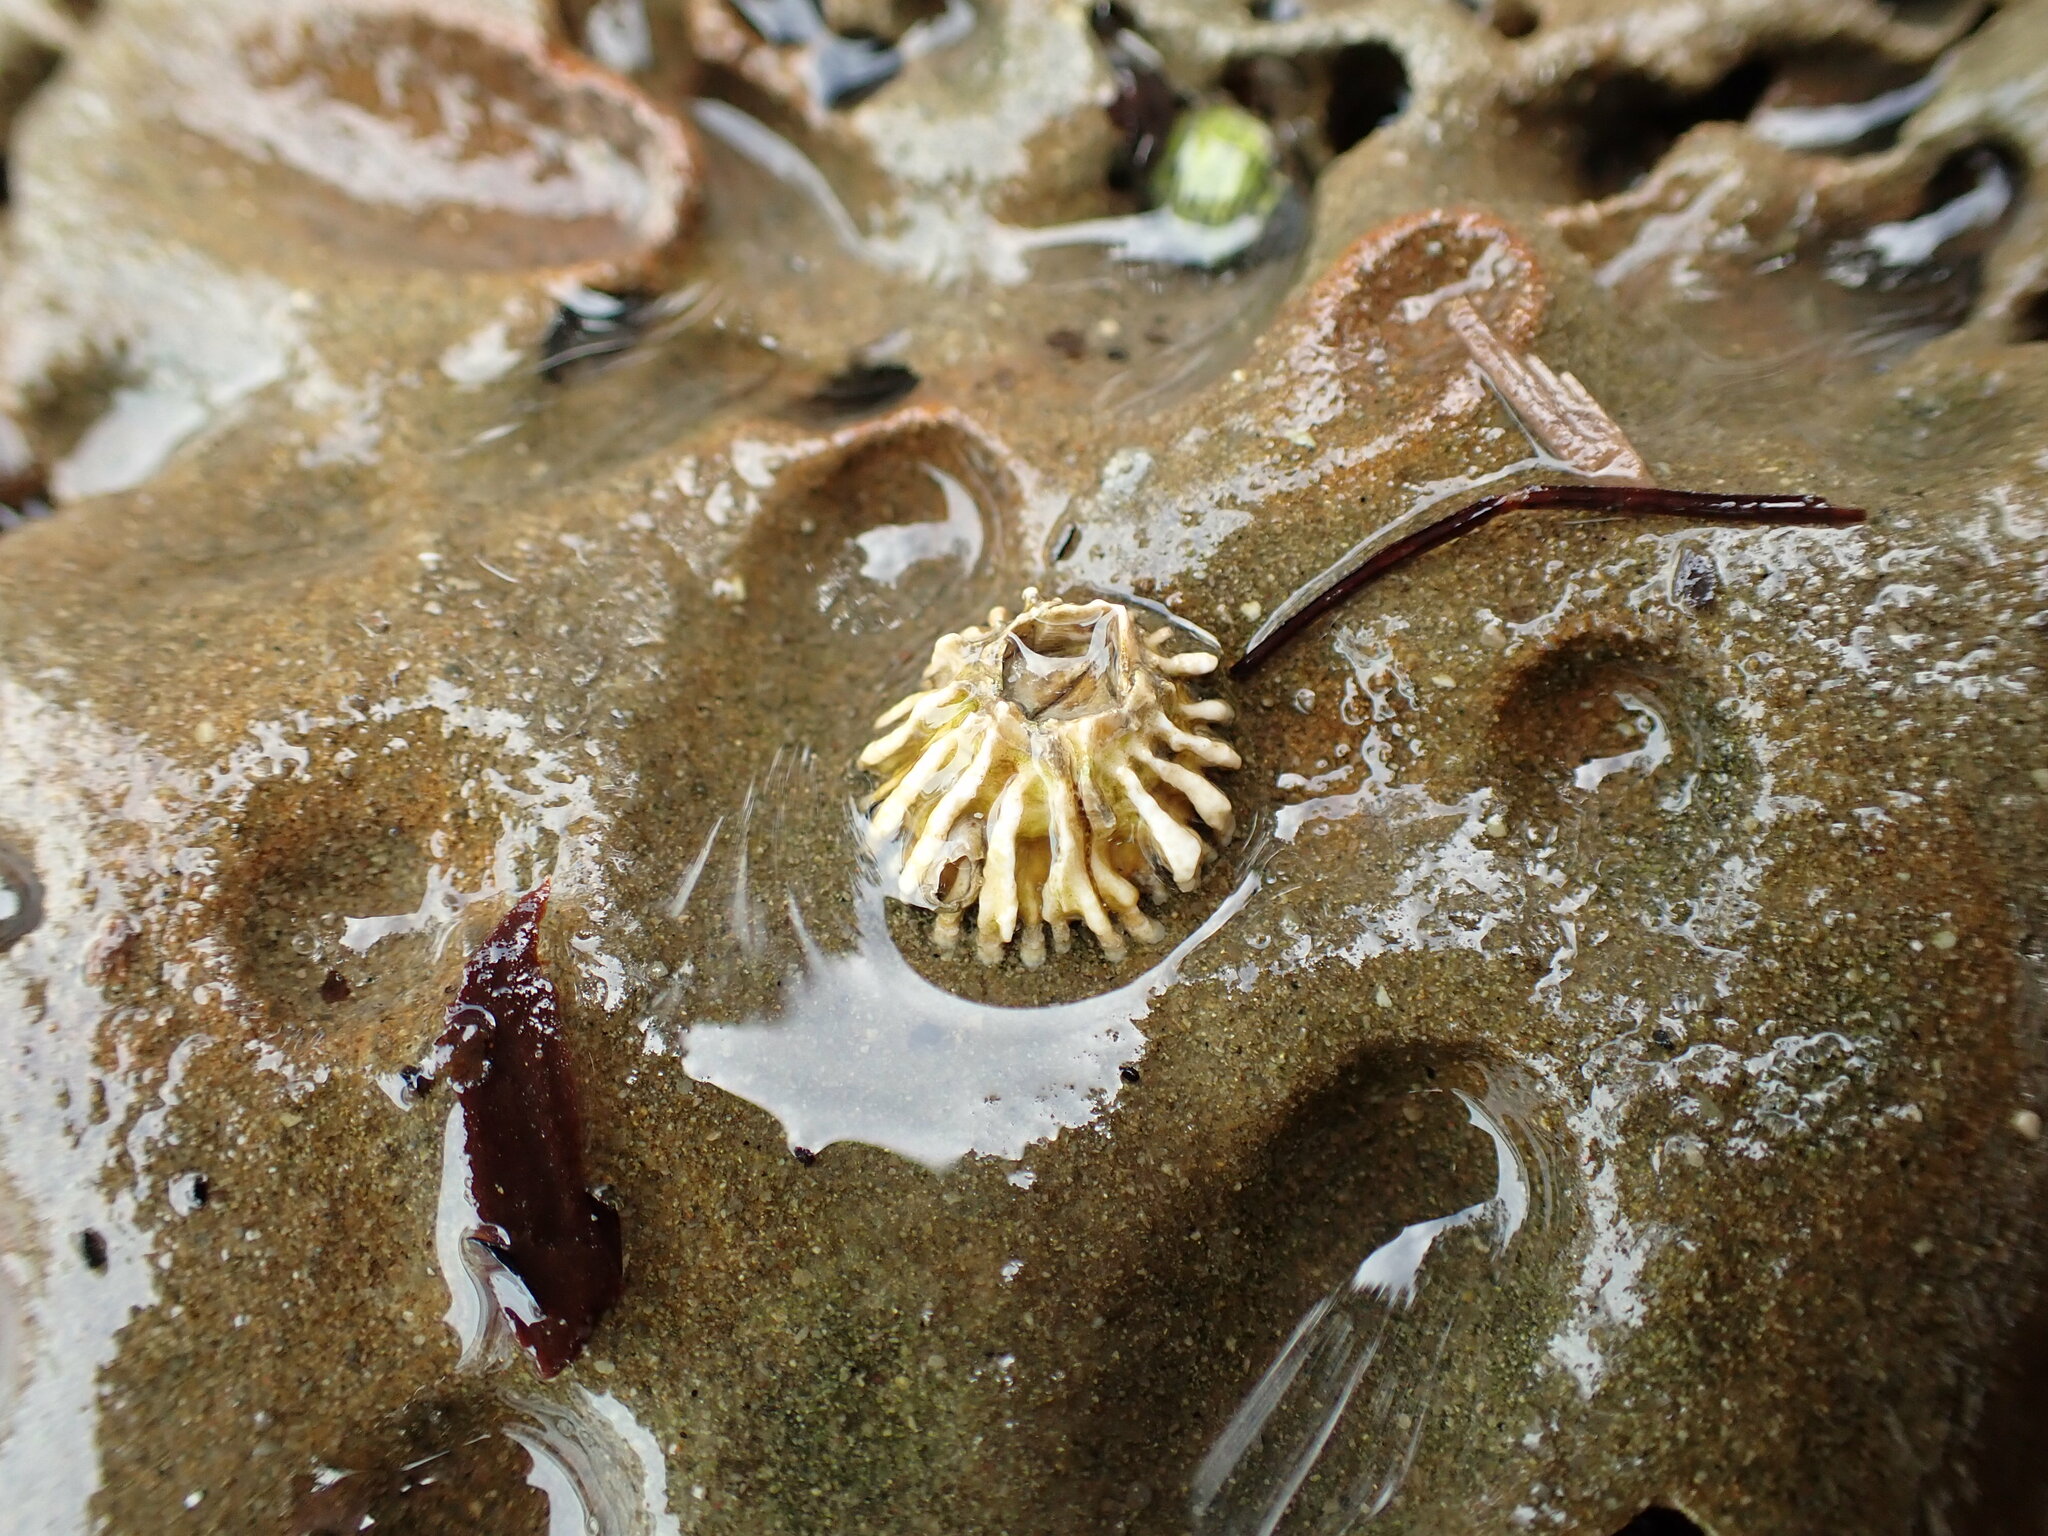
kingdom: Animalia
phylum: Arthropoda
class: Maxillopoda
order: Sessilia
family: Tetraclitidae
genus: Epopella
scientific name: Epopella plicata
